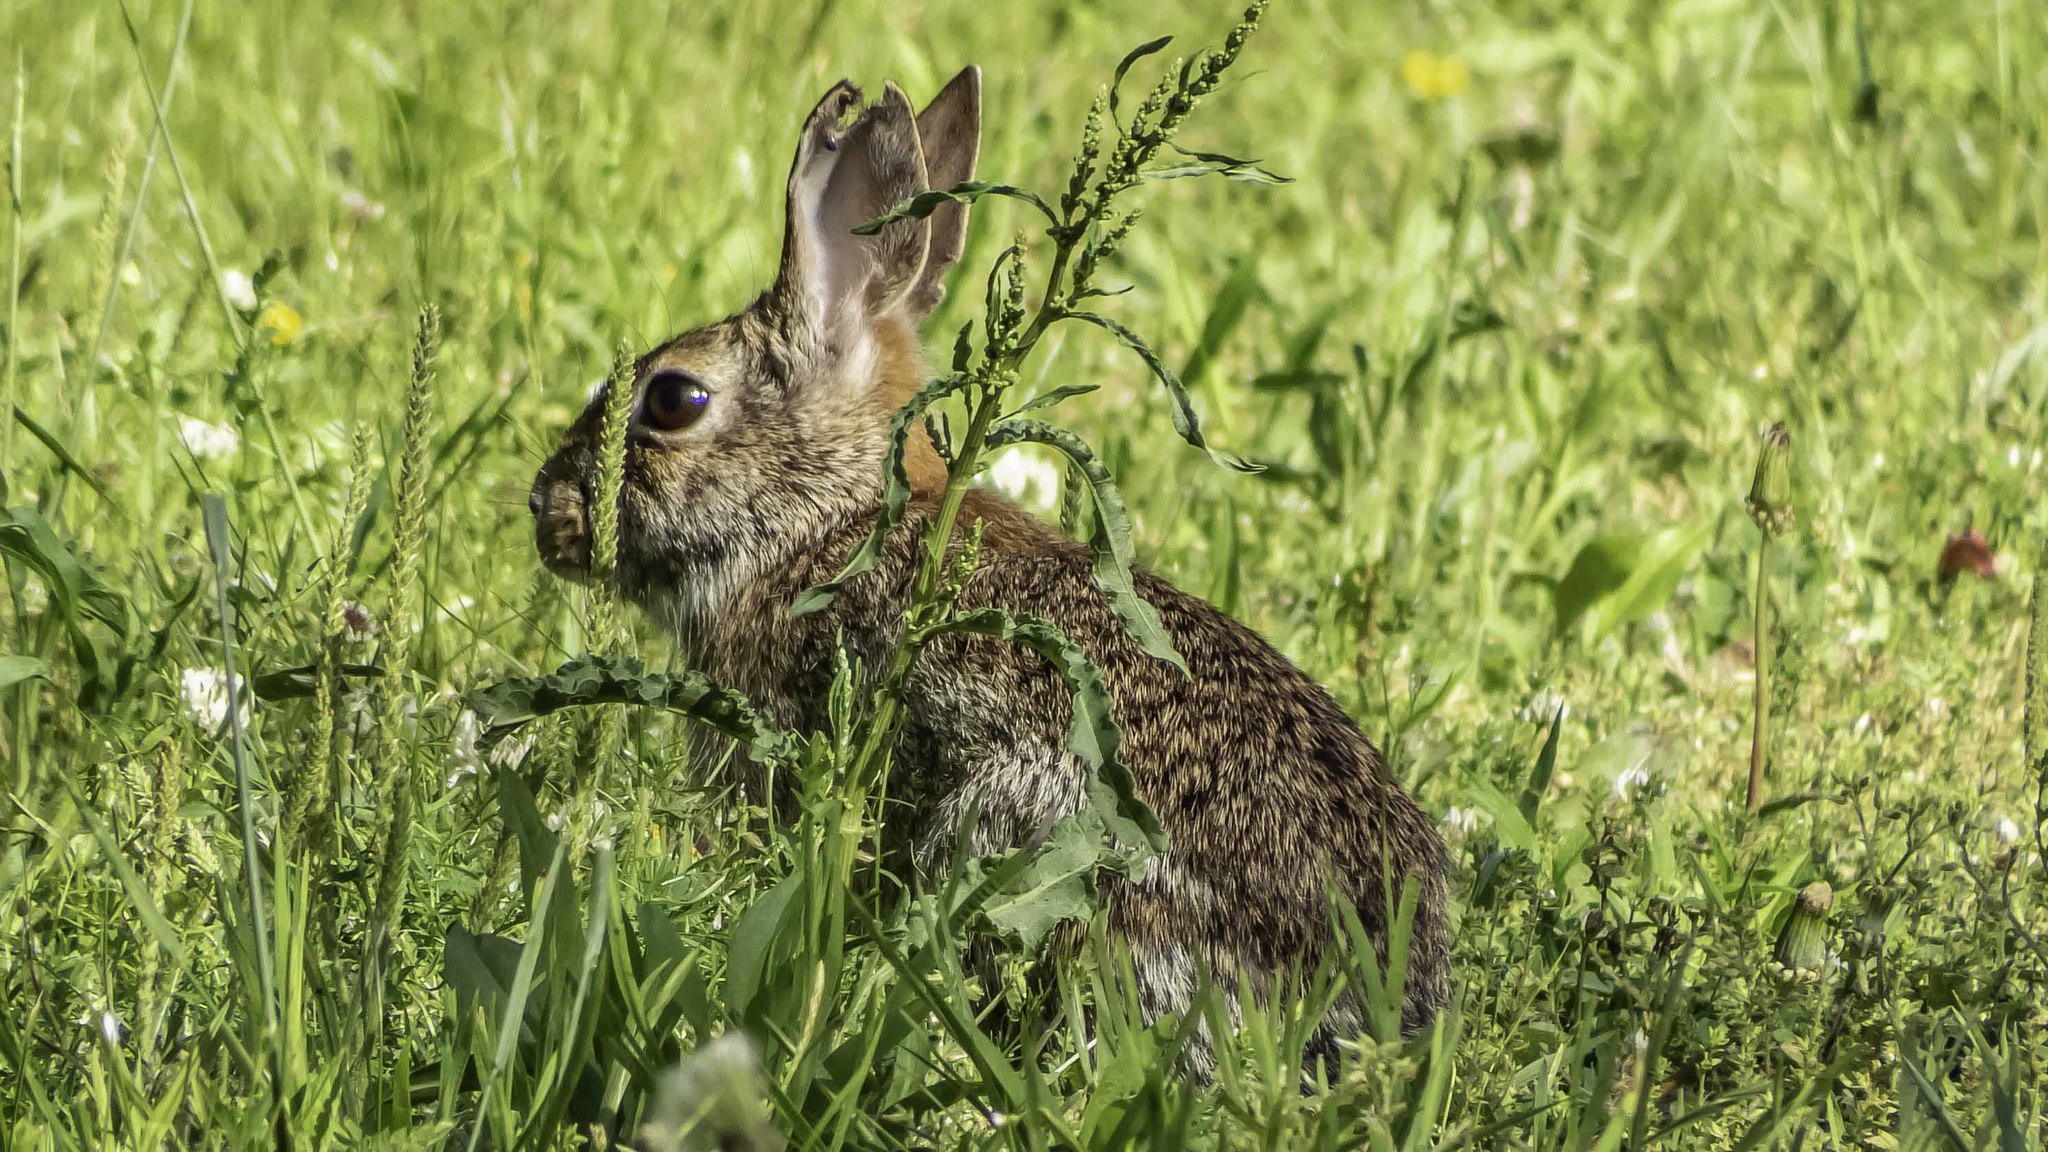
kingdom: Animalia
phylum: Chordata
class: Mammalia
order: Lagomorpha
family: Leporidae
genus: Sylvilagus
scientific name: Sylvilagus floridanus
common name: Eastern cottontail
